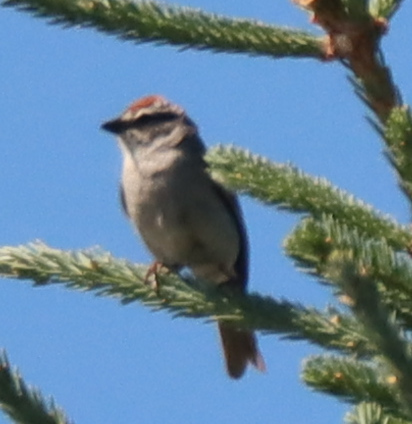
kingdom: Animalia
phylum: Chordata
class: Aves
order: Passeriformes
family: Passerellidae
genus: Spizella
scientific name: Spizella passerina
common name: Chipping sparrow
